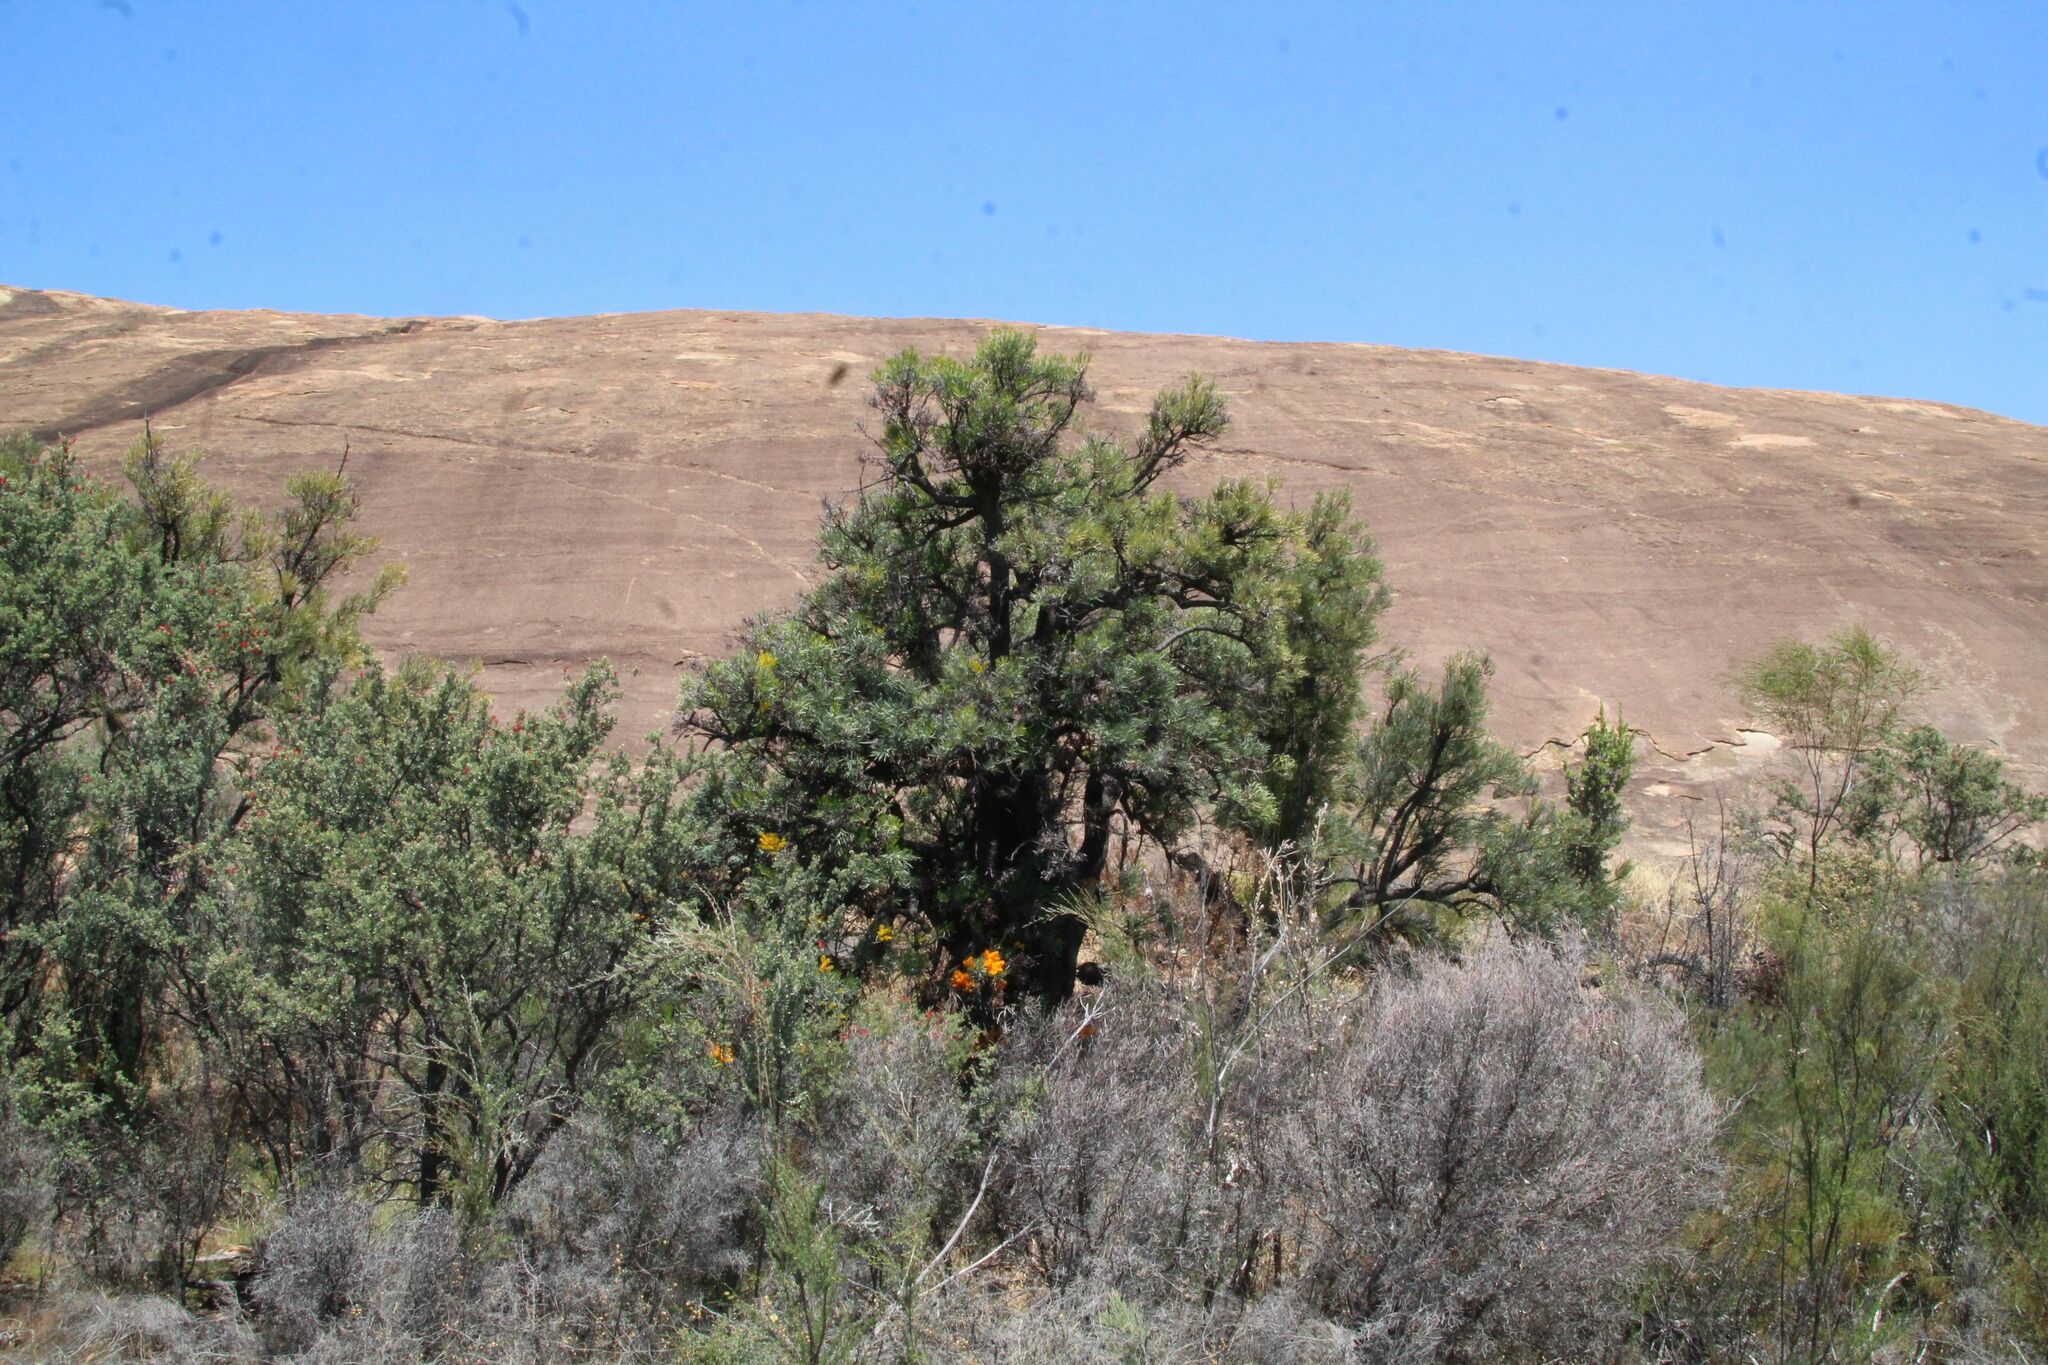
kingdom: Plantae
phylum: Tracheophyta
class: Magnoliopsida
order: Santalales
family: Loranthaceae
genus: Nuytsia
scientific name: Nuytsia floribunda
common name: Western australian christmastree
